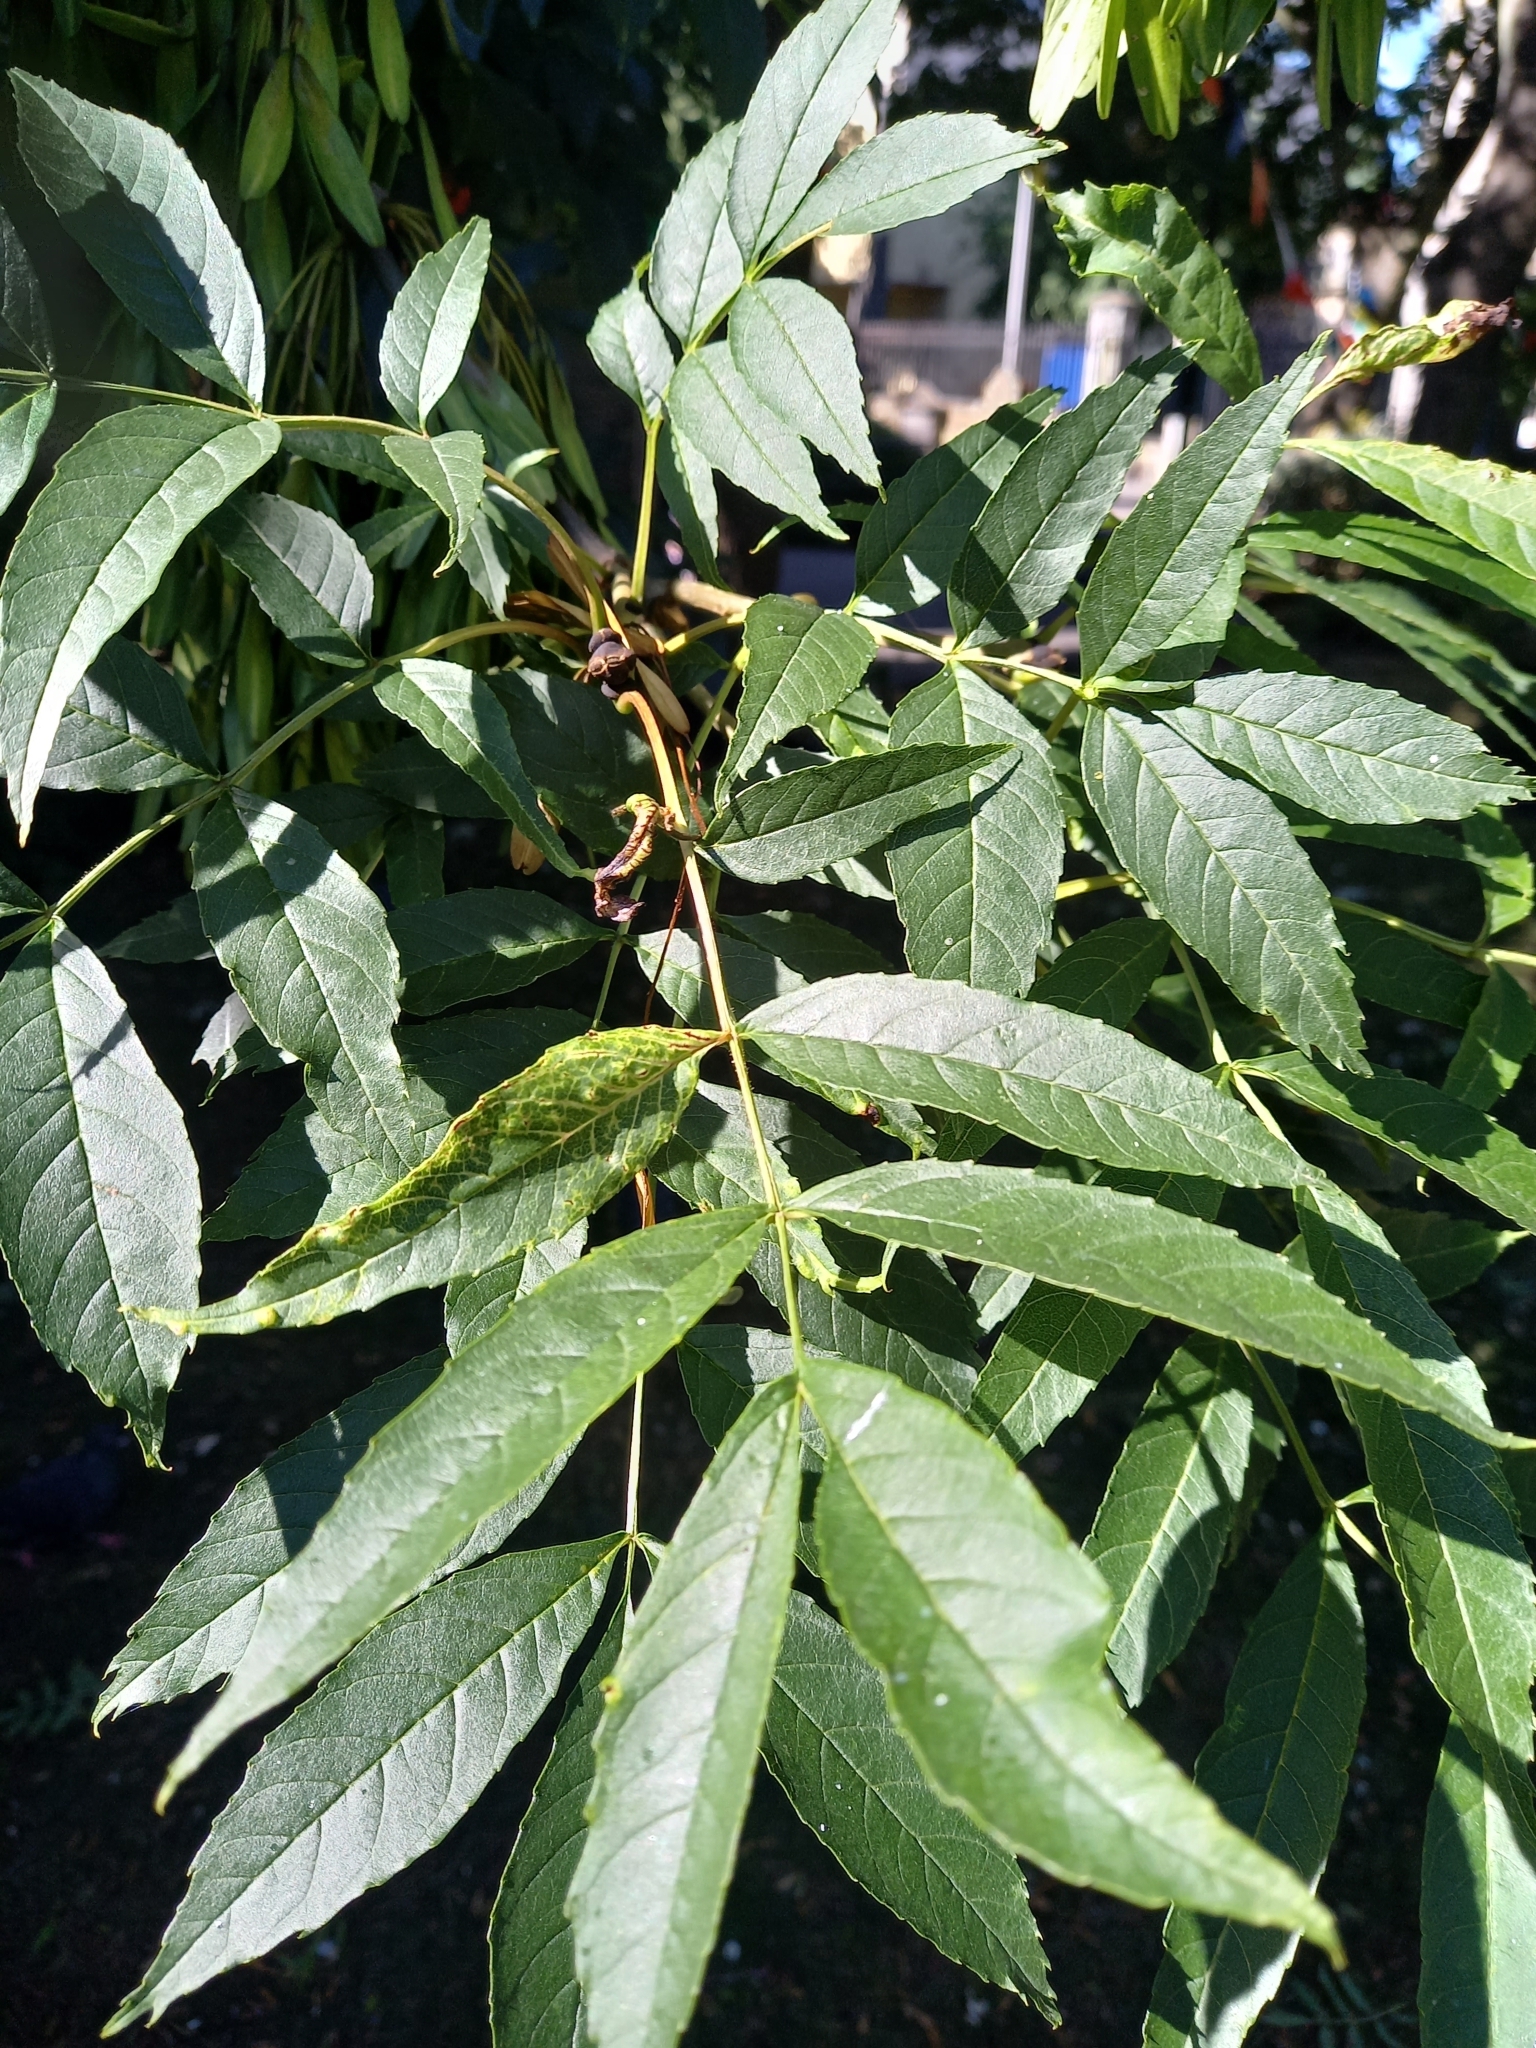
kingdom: Plantae
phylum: Tracheophyta
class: Magnoliopsida
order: Lamiales
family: Oleaceae
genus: Fraxinus
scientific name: Fraxinus excelsior
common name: European ash
